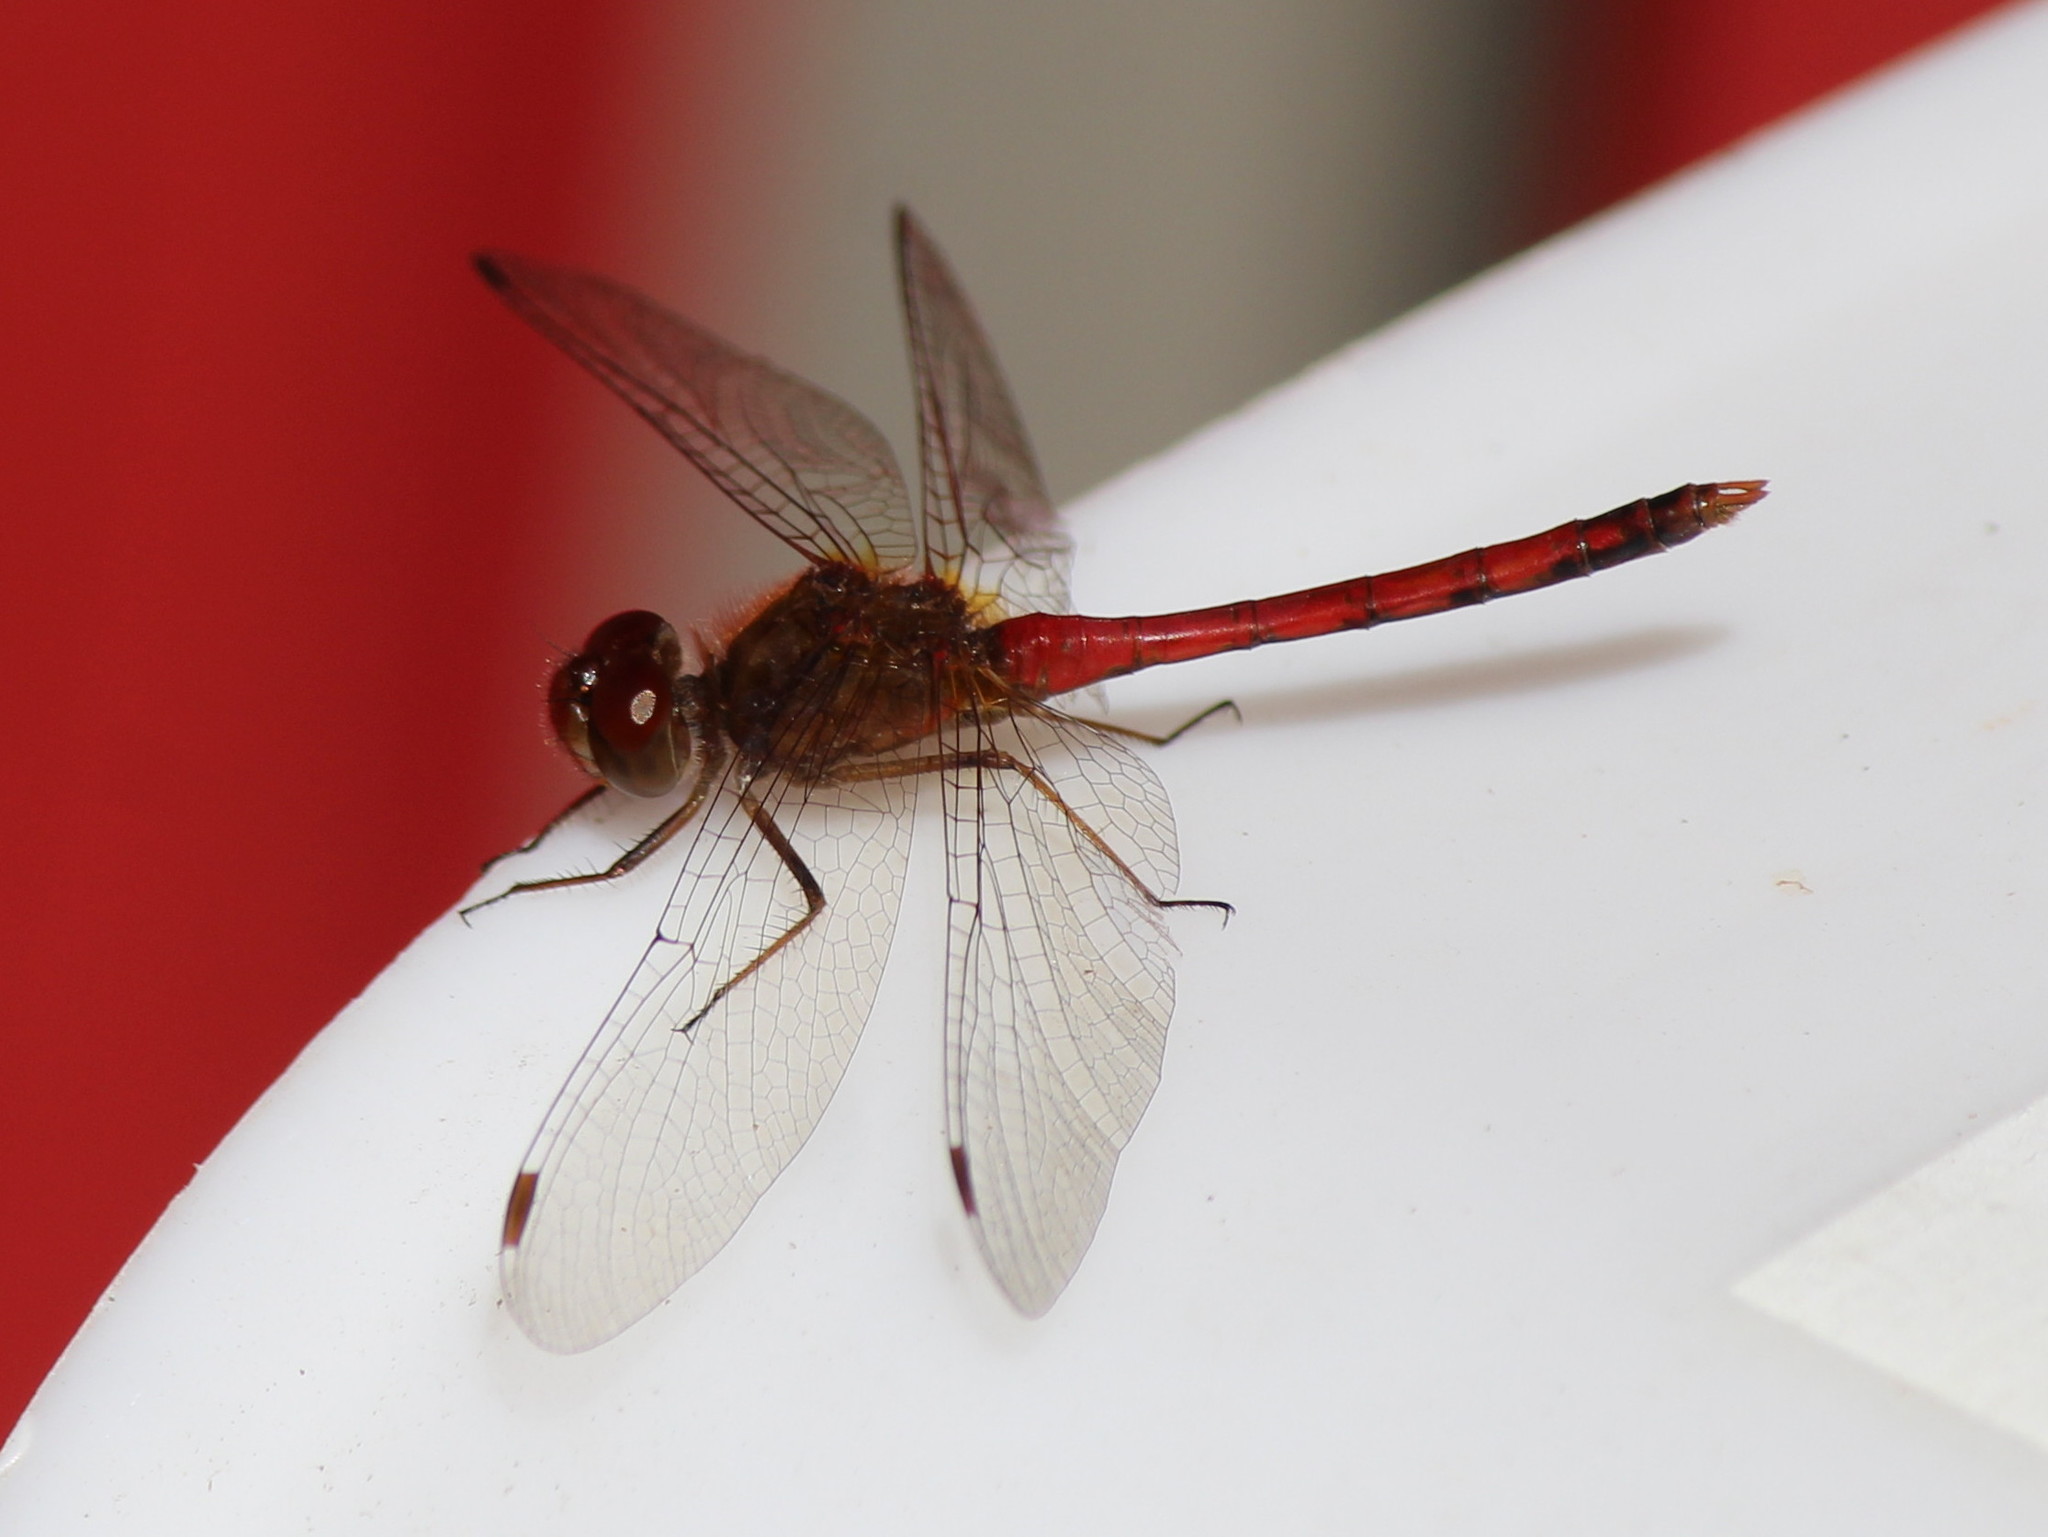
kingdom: Animalia
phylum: Arthropoda
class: Insecta
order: Odonata
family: Libellulidae
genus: Sympetrum
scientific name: Sympetrum vicinum
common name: Autumn meadowhawk
